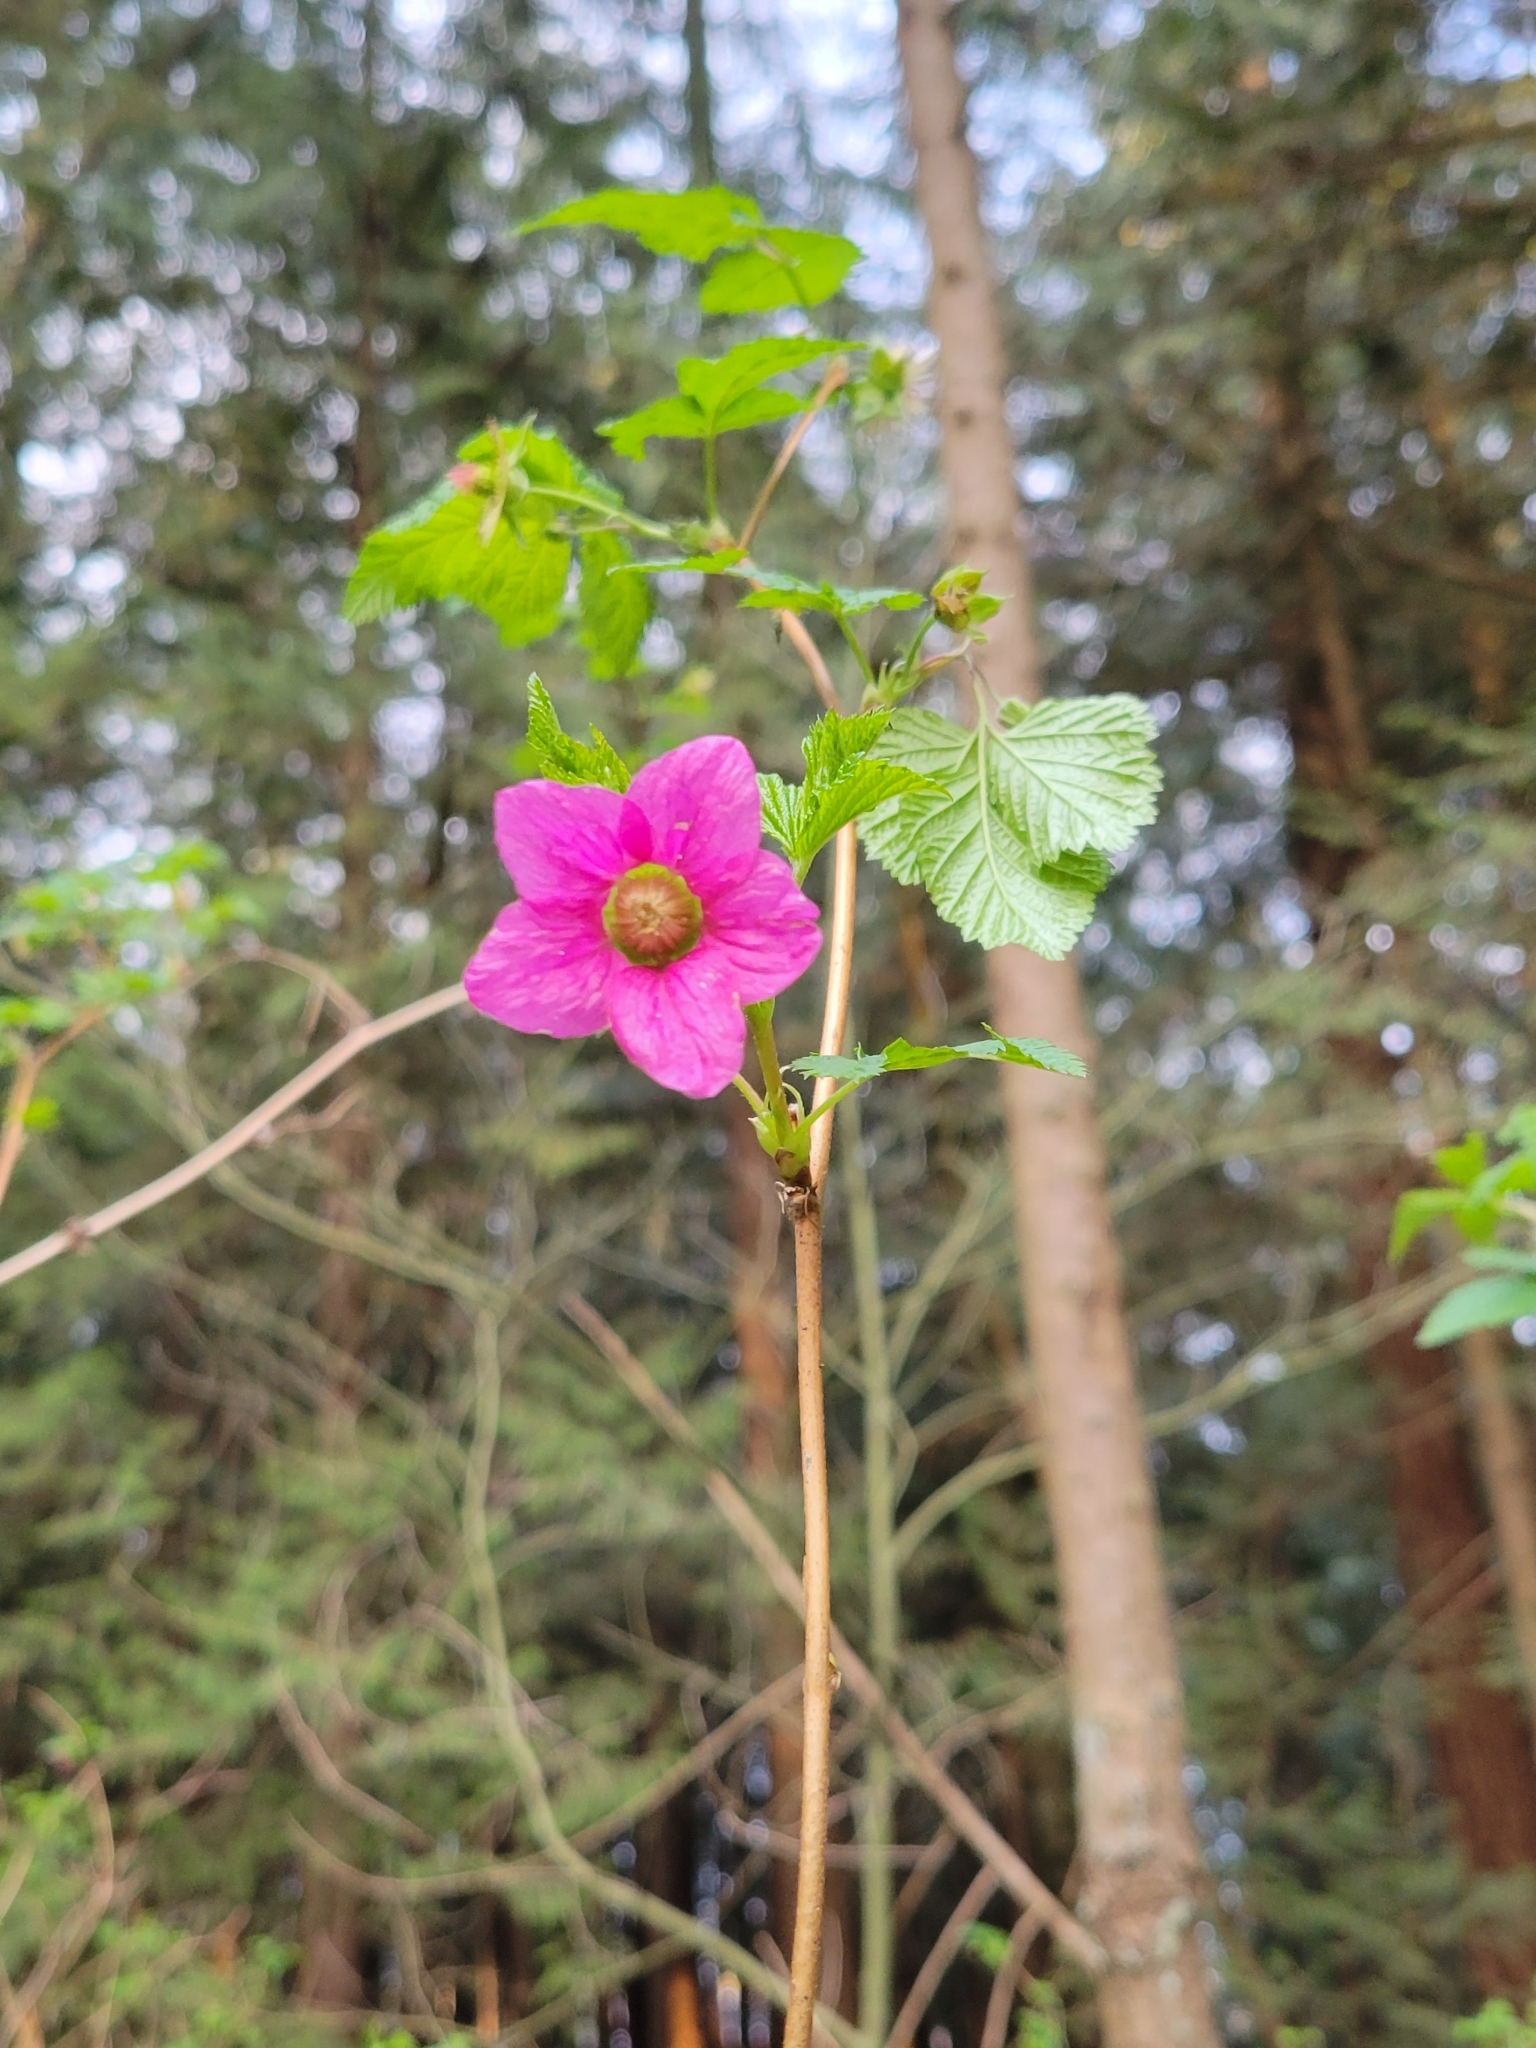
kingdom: Plantae
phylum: Tracheophyta
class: Magnoliopsida
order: Rosales
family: Rosaceae
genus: Rubus
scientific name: Rubus spectabilis
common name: Salmonberry
